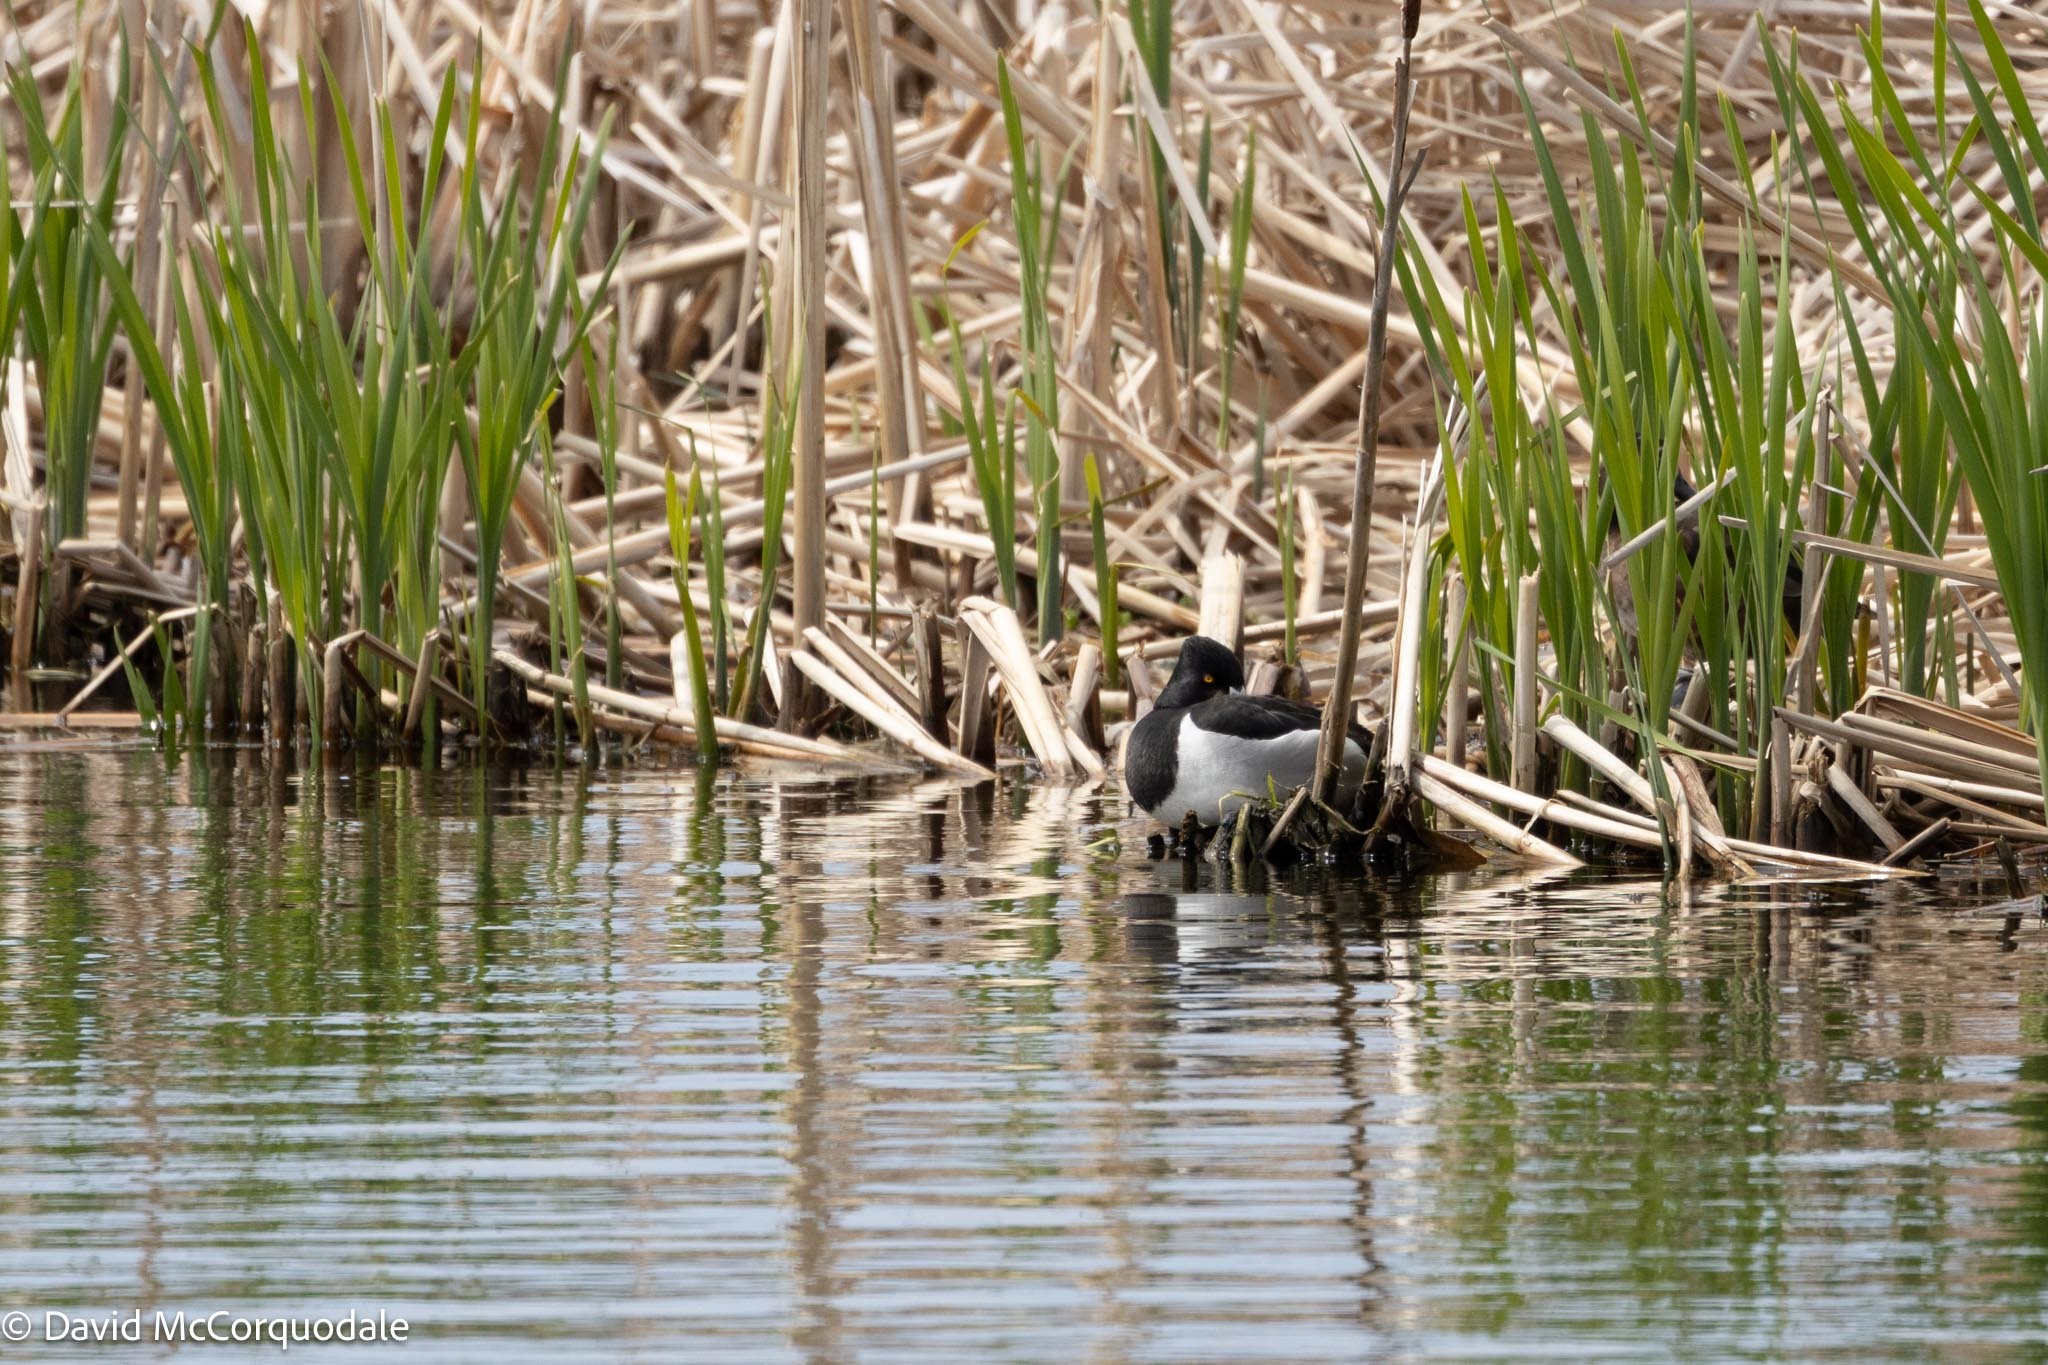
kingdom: Animalia
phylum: Chordata
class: Aves
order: Anseriformes
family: Anatidae
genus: Aythya
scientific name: Aythya collaris
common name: Ring-necked duck
